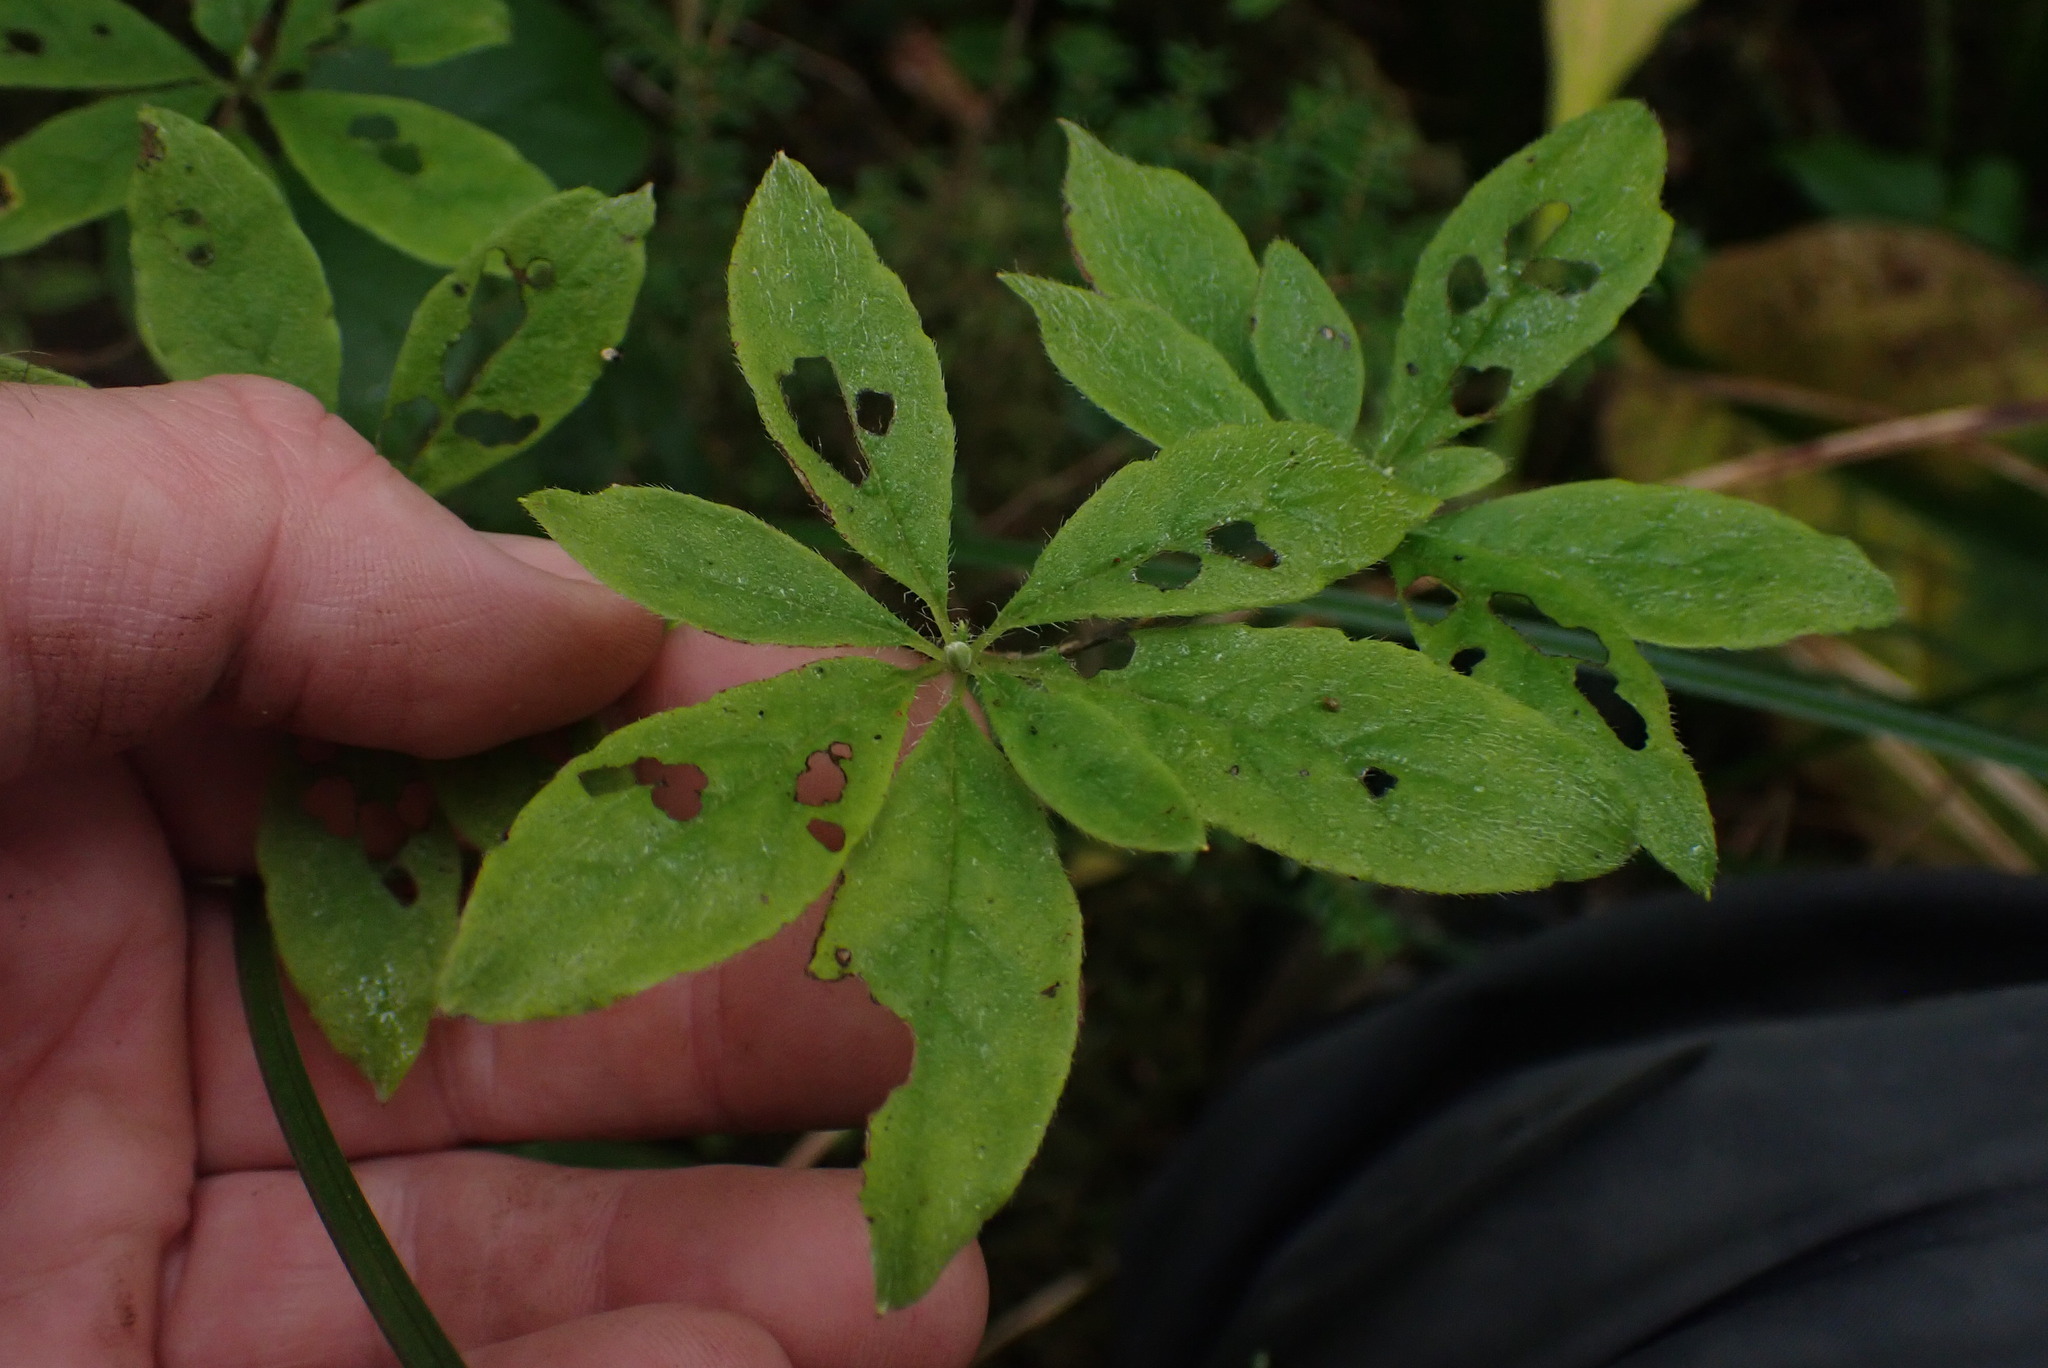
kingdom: Plantae
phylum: Tracheophyta
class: Magnoliopsida
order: Ericales
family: Ericaceae
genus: Rhododendron
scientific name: Rhododendron menziesii
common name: Pacific menziesia
